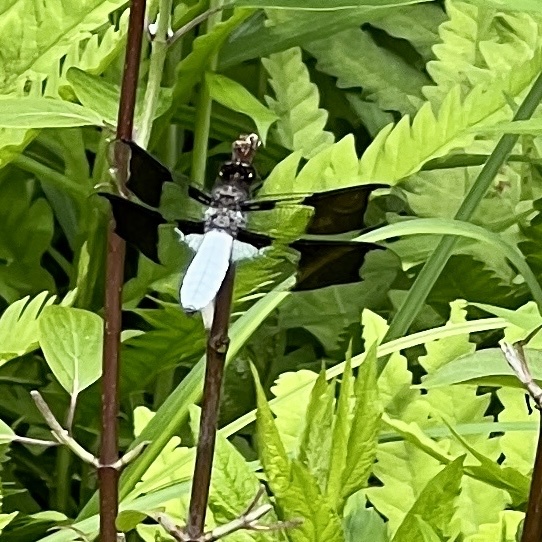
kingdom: Animalia
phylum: Arthropoda
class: Insecta
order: Odonata
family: Libellulidae
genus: Plathemis
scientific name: Plathemis lydia
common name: Common whitetail
